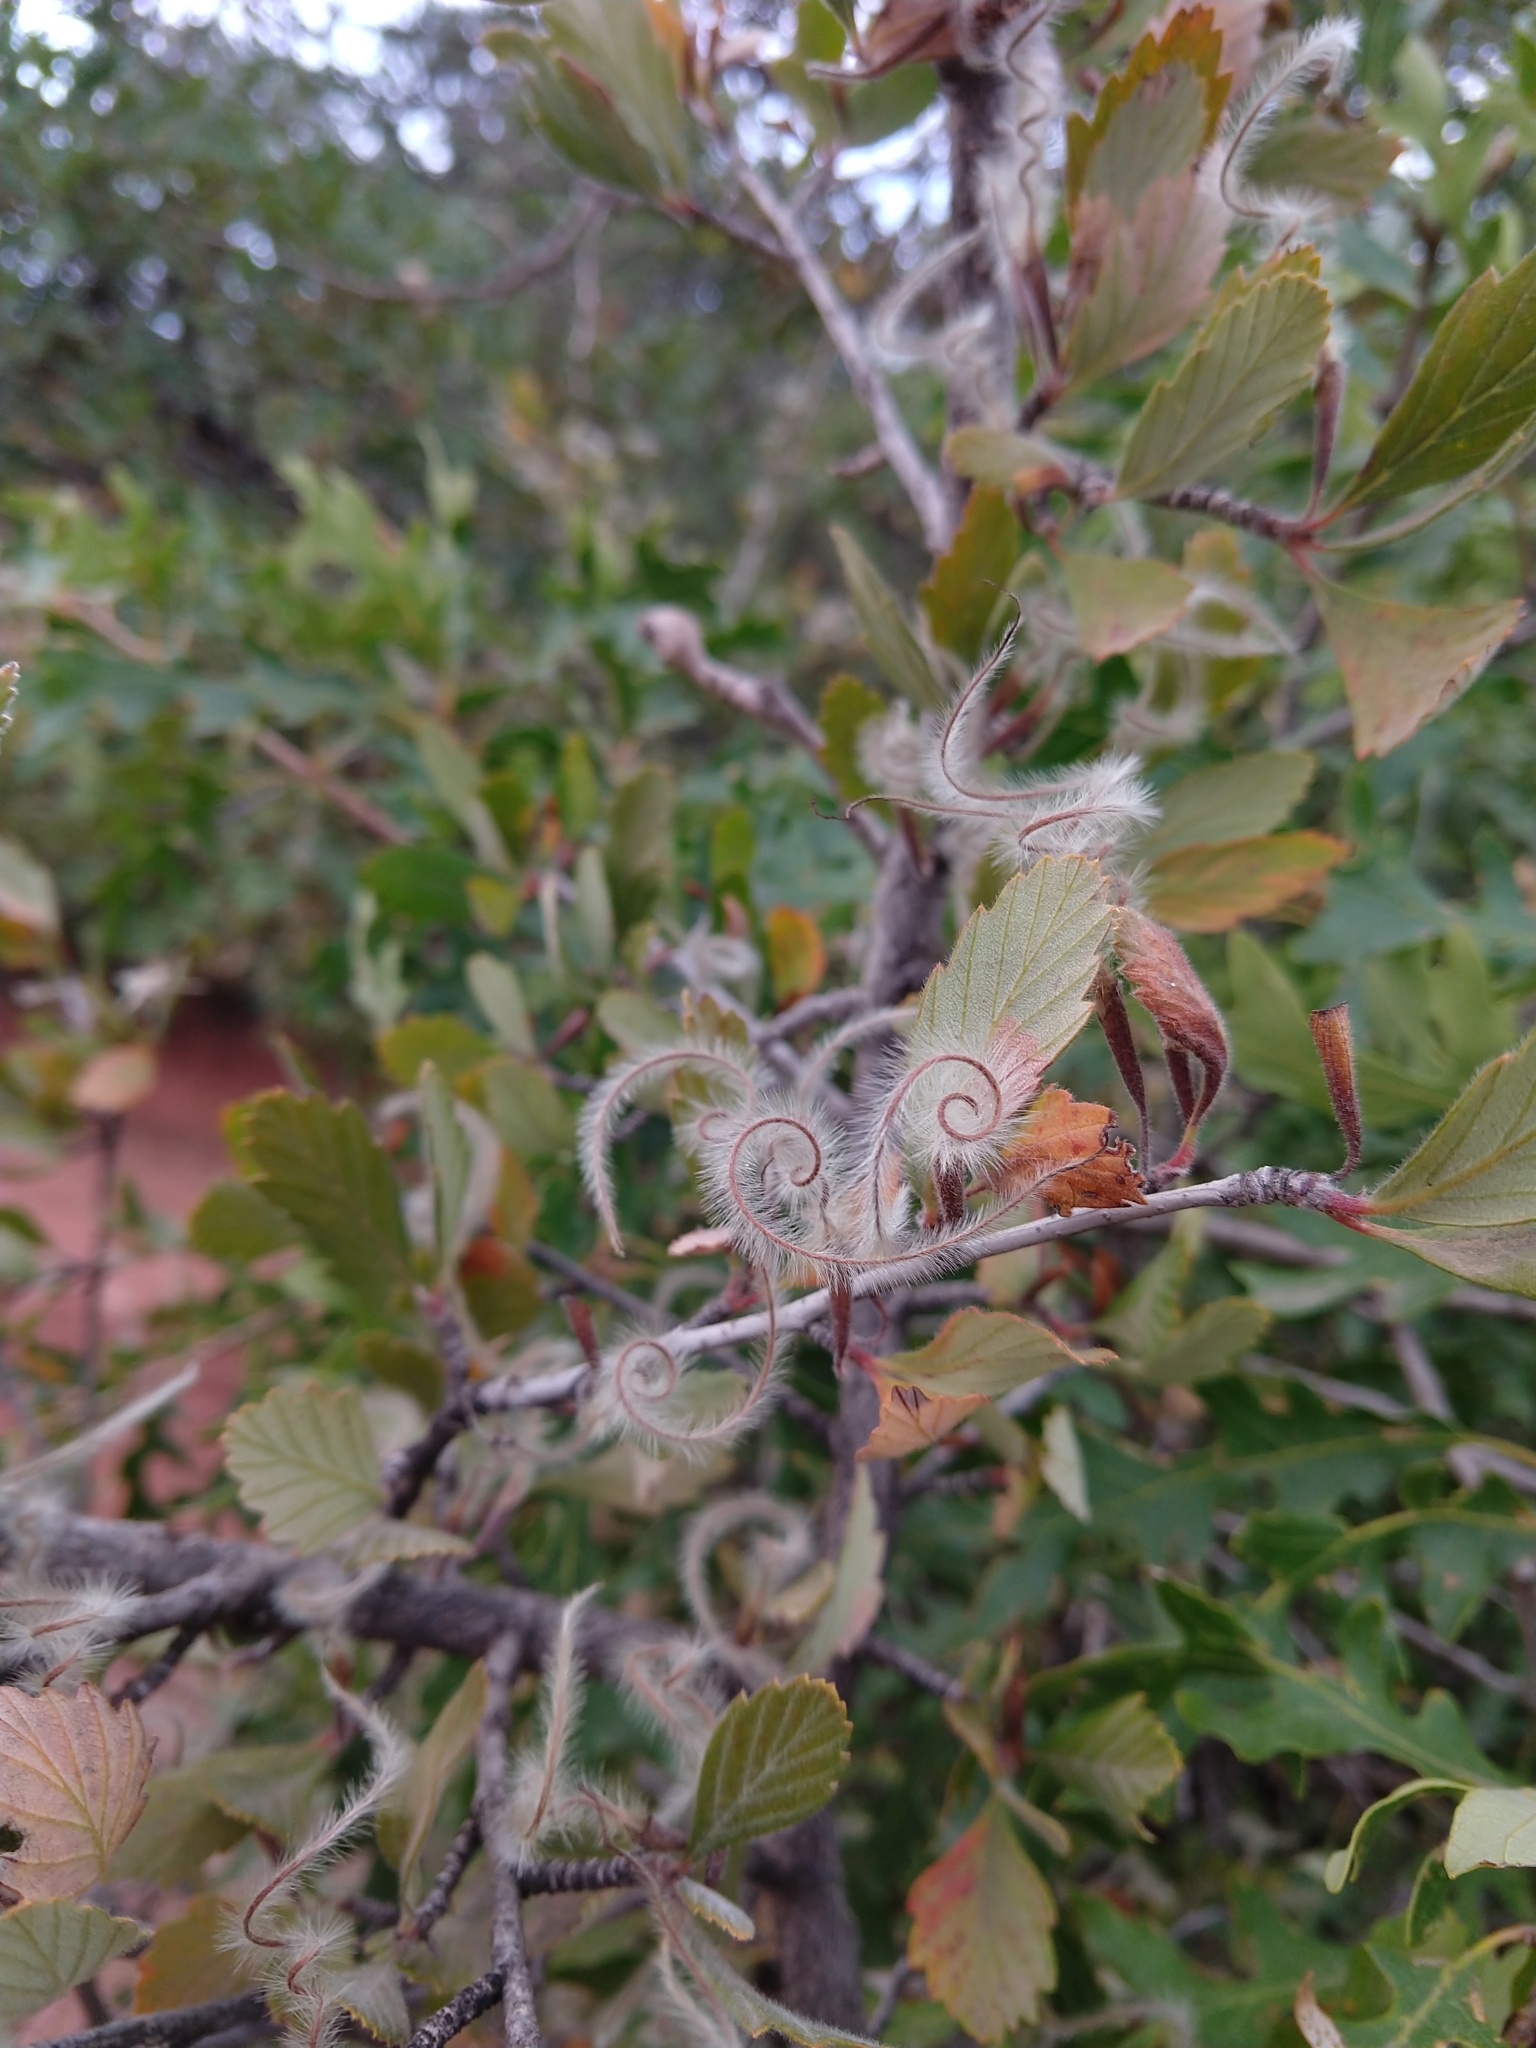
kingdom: Plantae
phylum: Tracheophyta
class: Magnoliopsida
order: Rosales
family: Rosaceae
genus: Cercocarpus
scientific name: Cercocarpus montanus
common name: Alder-leaf cercocarpus
